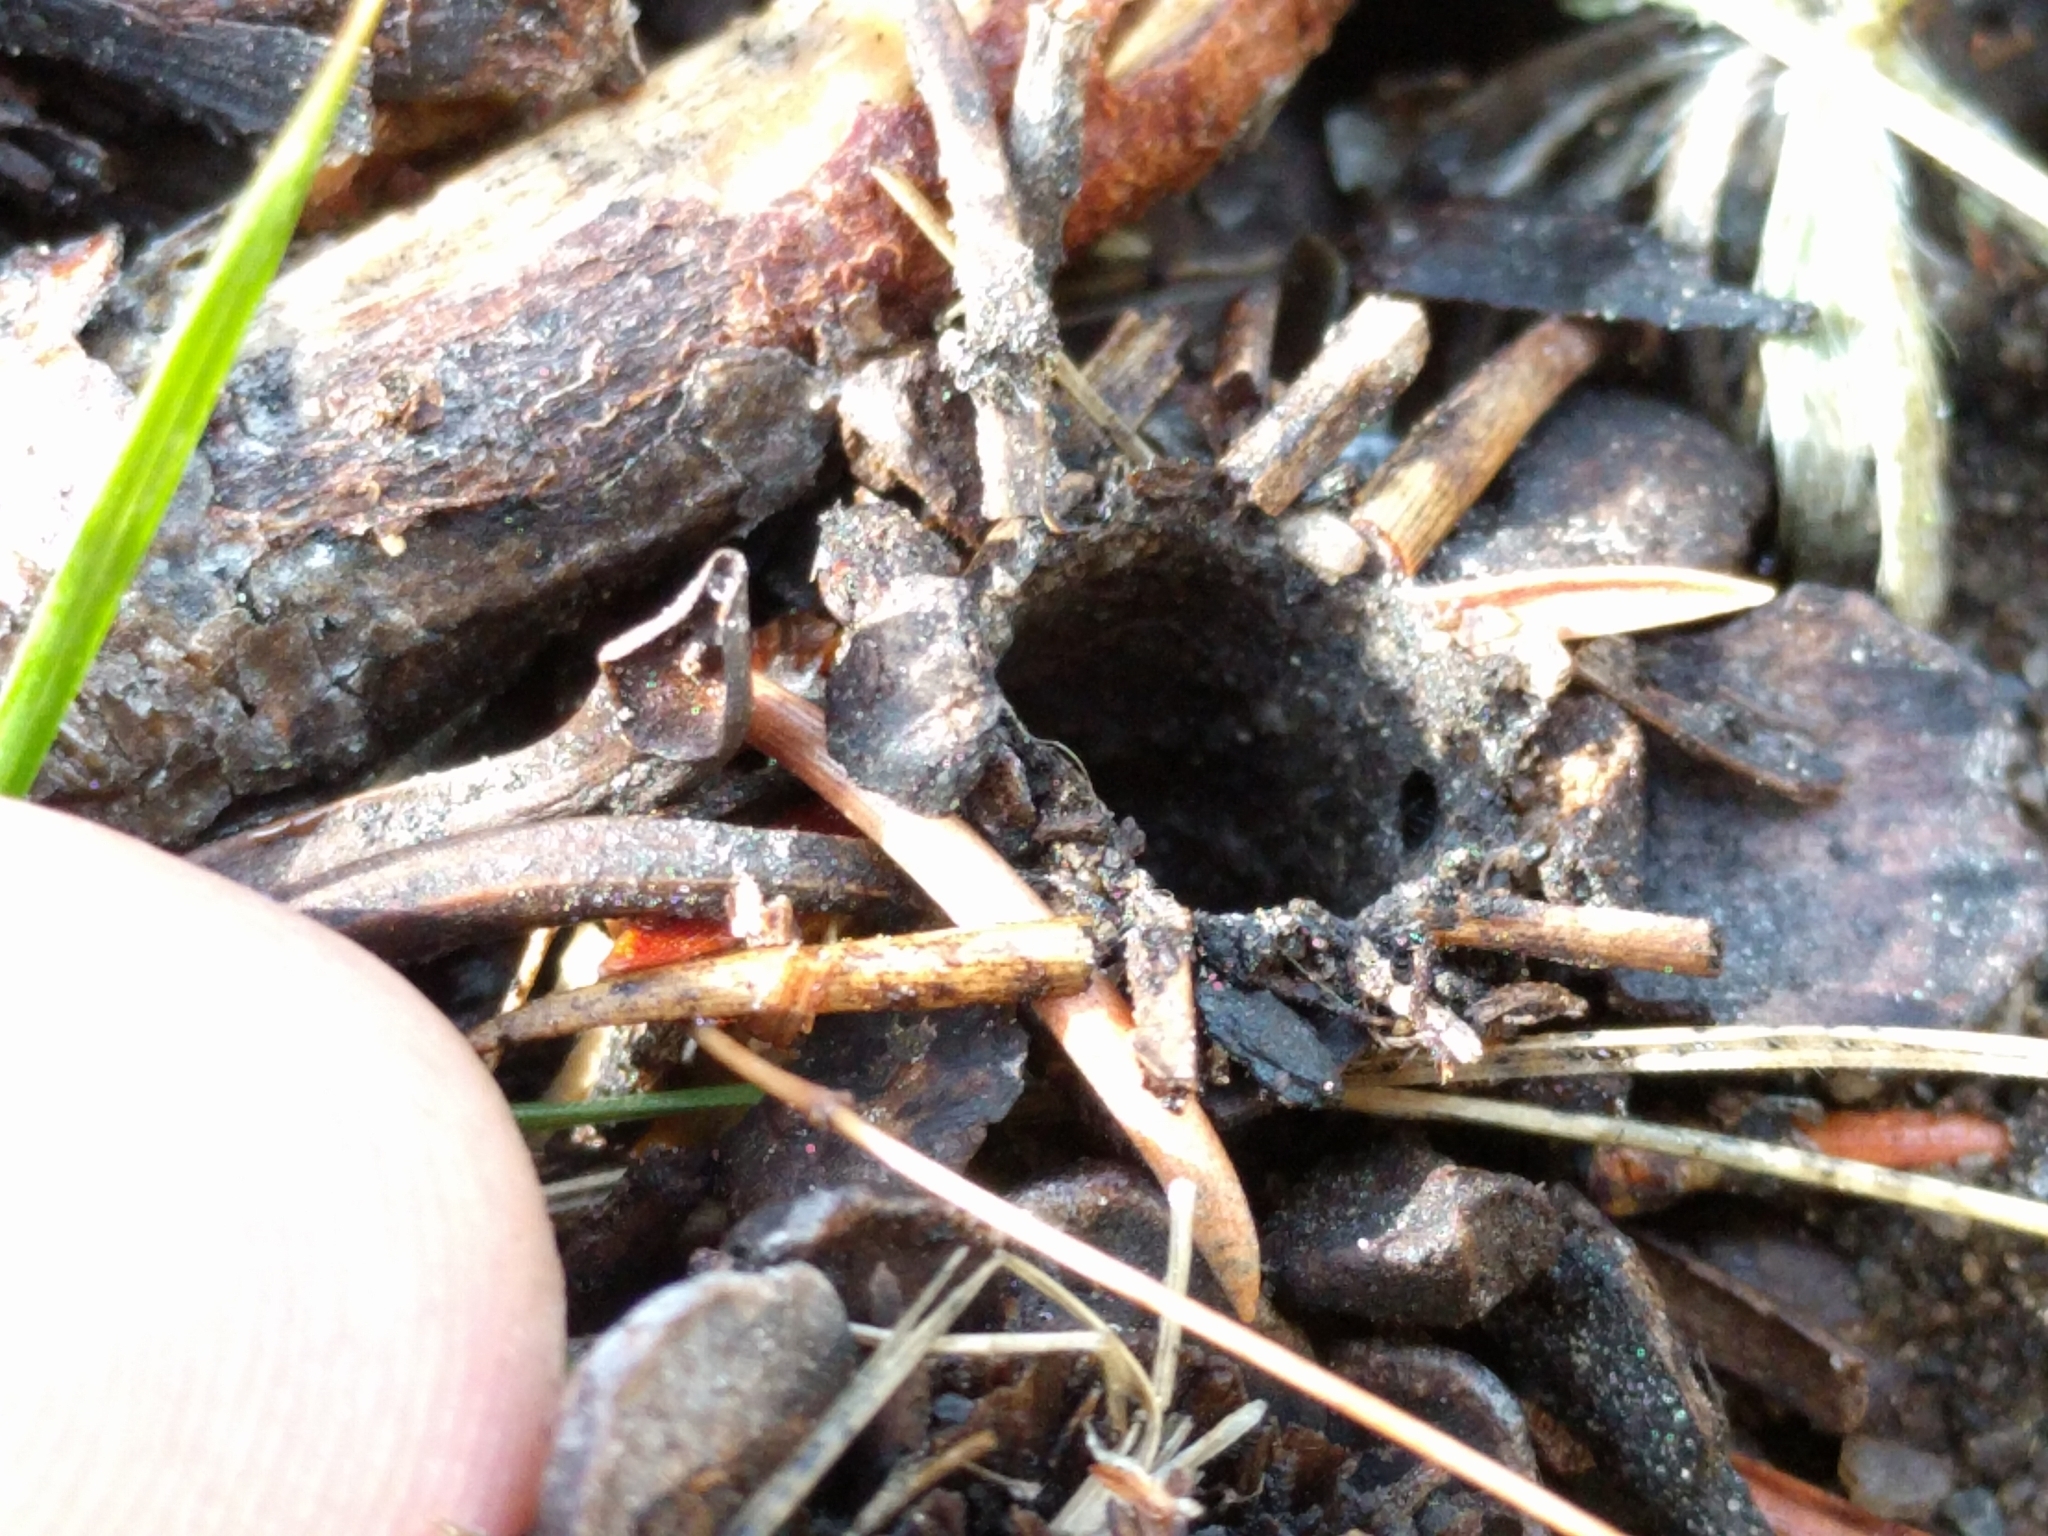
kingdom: Animalia
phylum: Arthropoda
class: Arachnida
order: Araneae
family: Antrodiaetidae
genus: Atypoides
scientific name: Atypoides riversi
